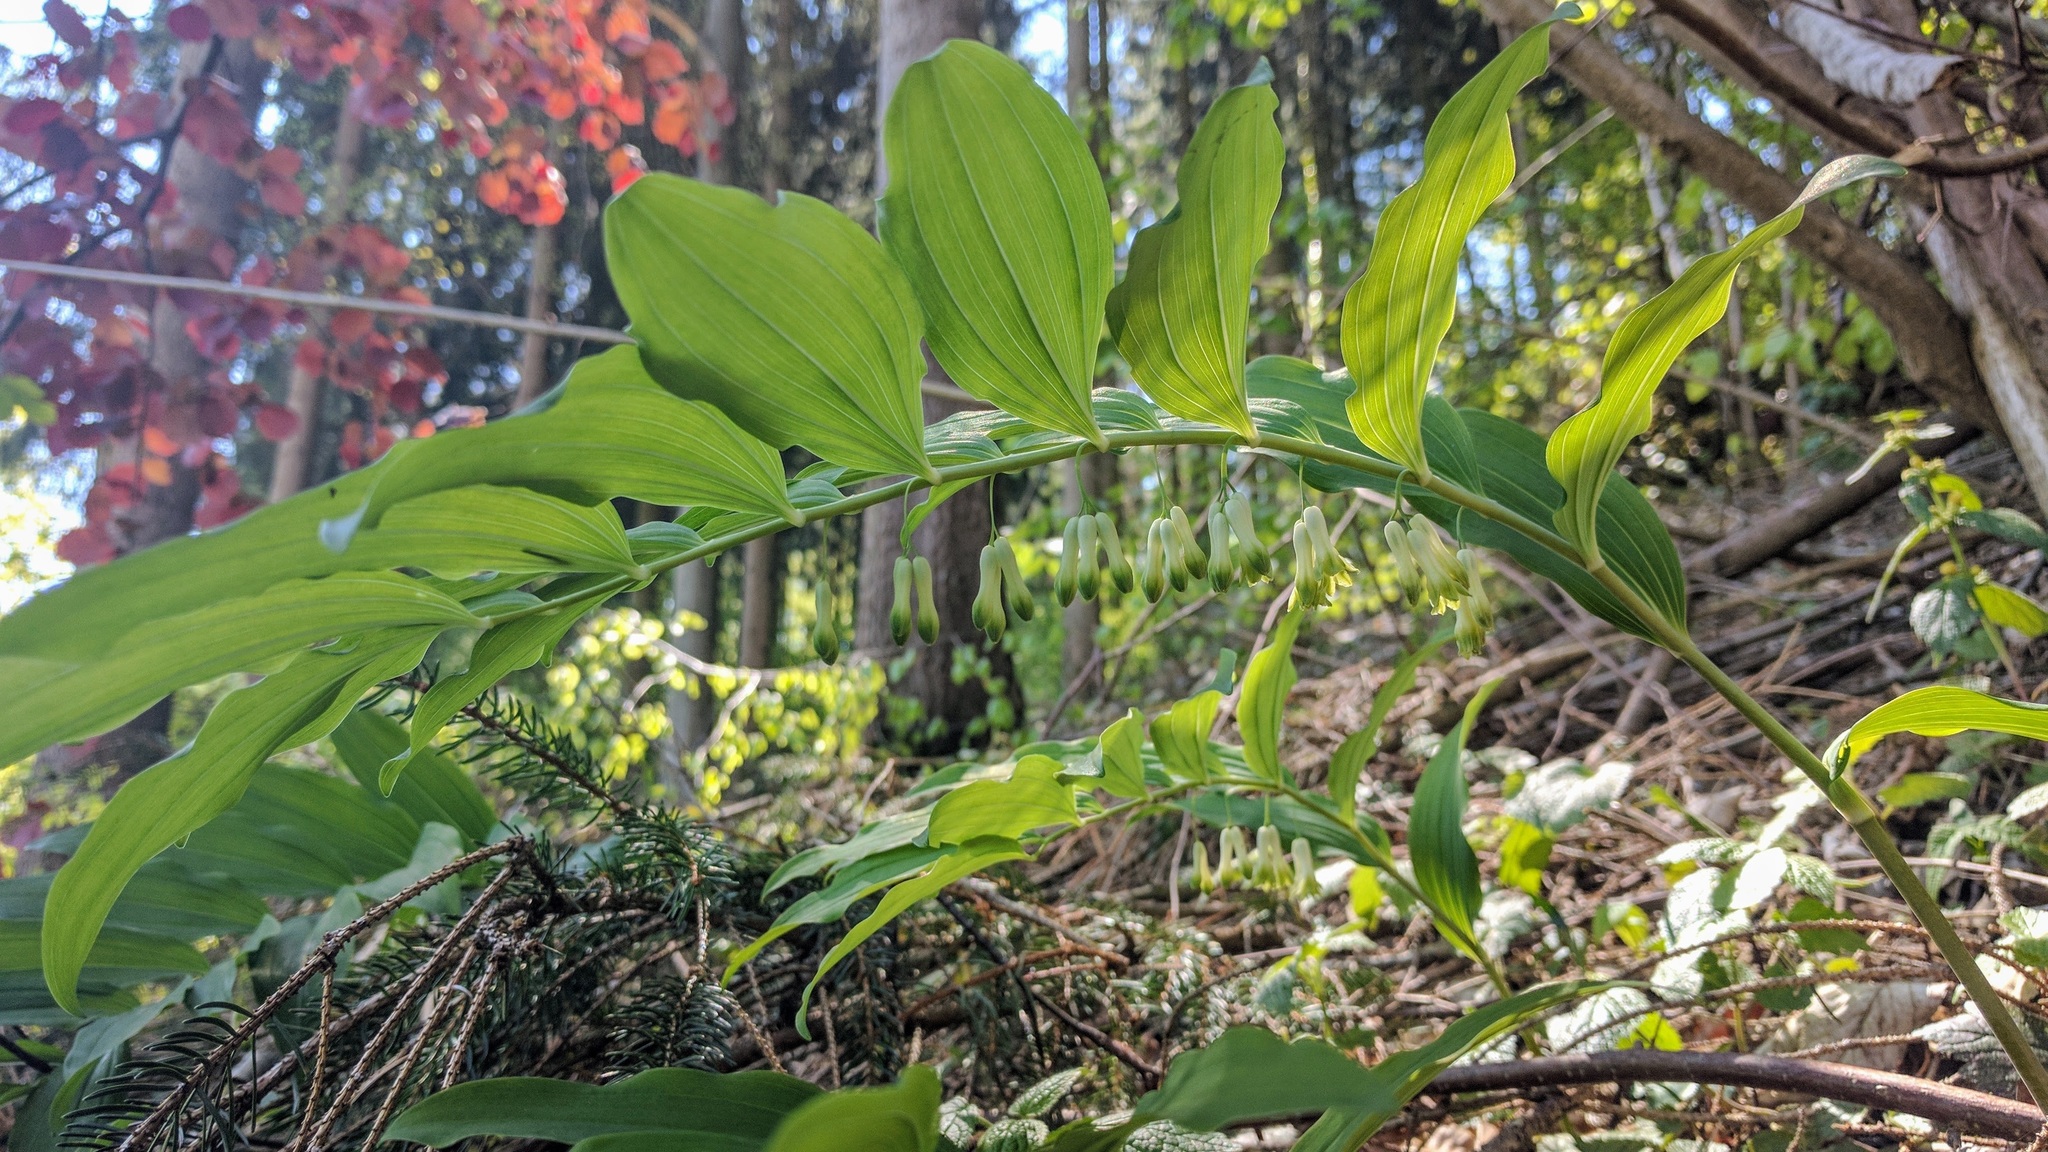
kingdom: Plantae
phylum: Tracheophyta
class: Liliopsida
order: Asparagales
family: Asparagaceae
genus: Polygonatum
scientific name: Polygonatum multiflorum
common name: Solomon's-seal
